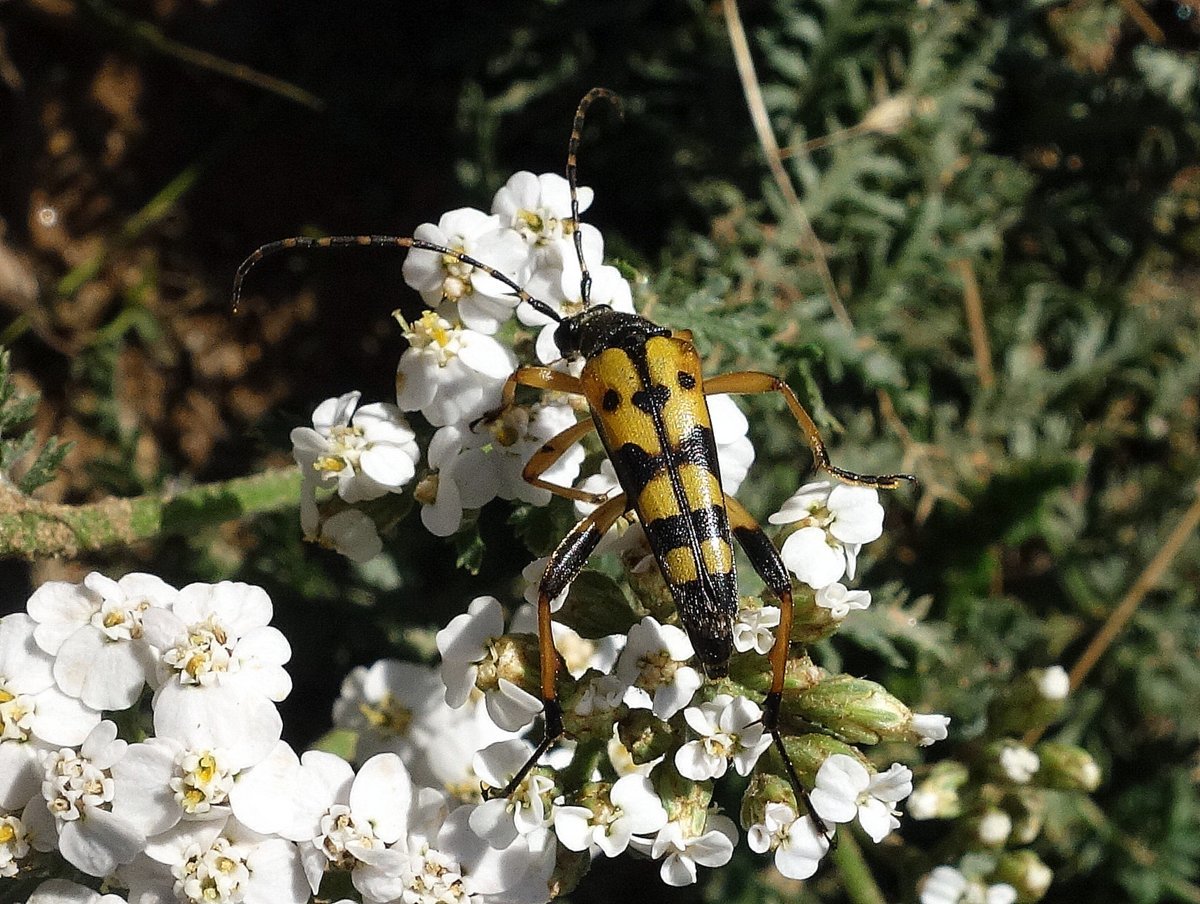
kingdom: Animalia
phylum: Arthropoda
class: Insecta
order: Coleoptera
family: Cerambycidae
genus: Rutpela
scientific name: Rutpela maculata
